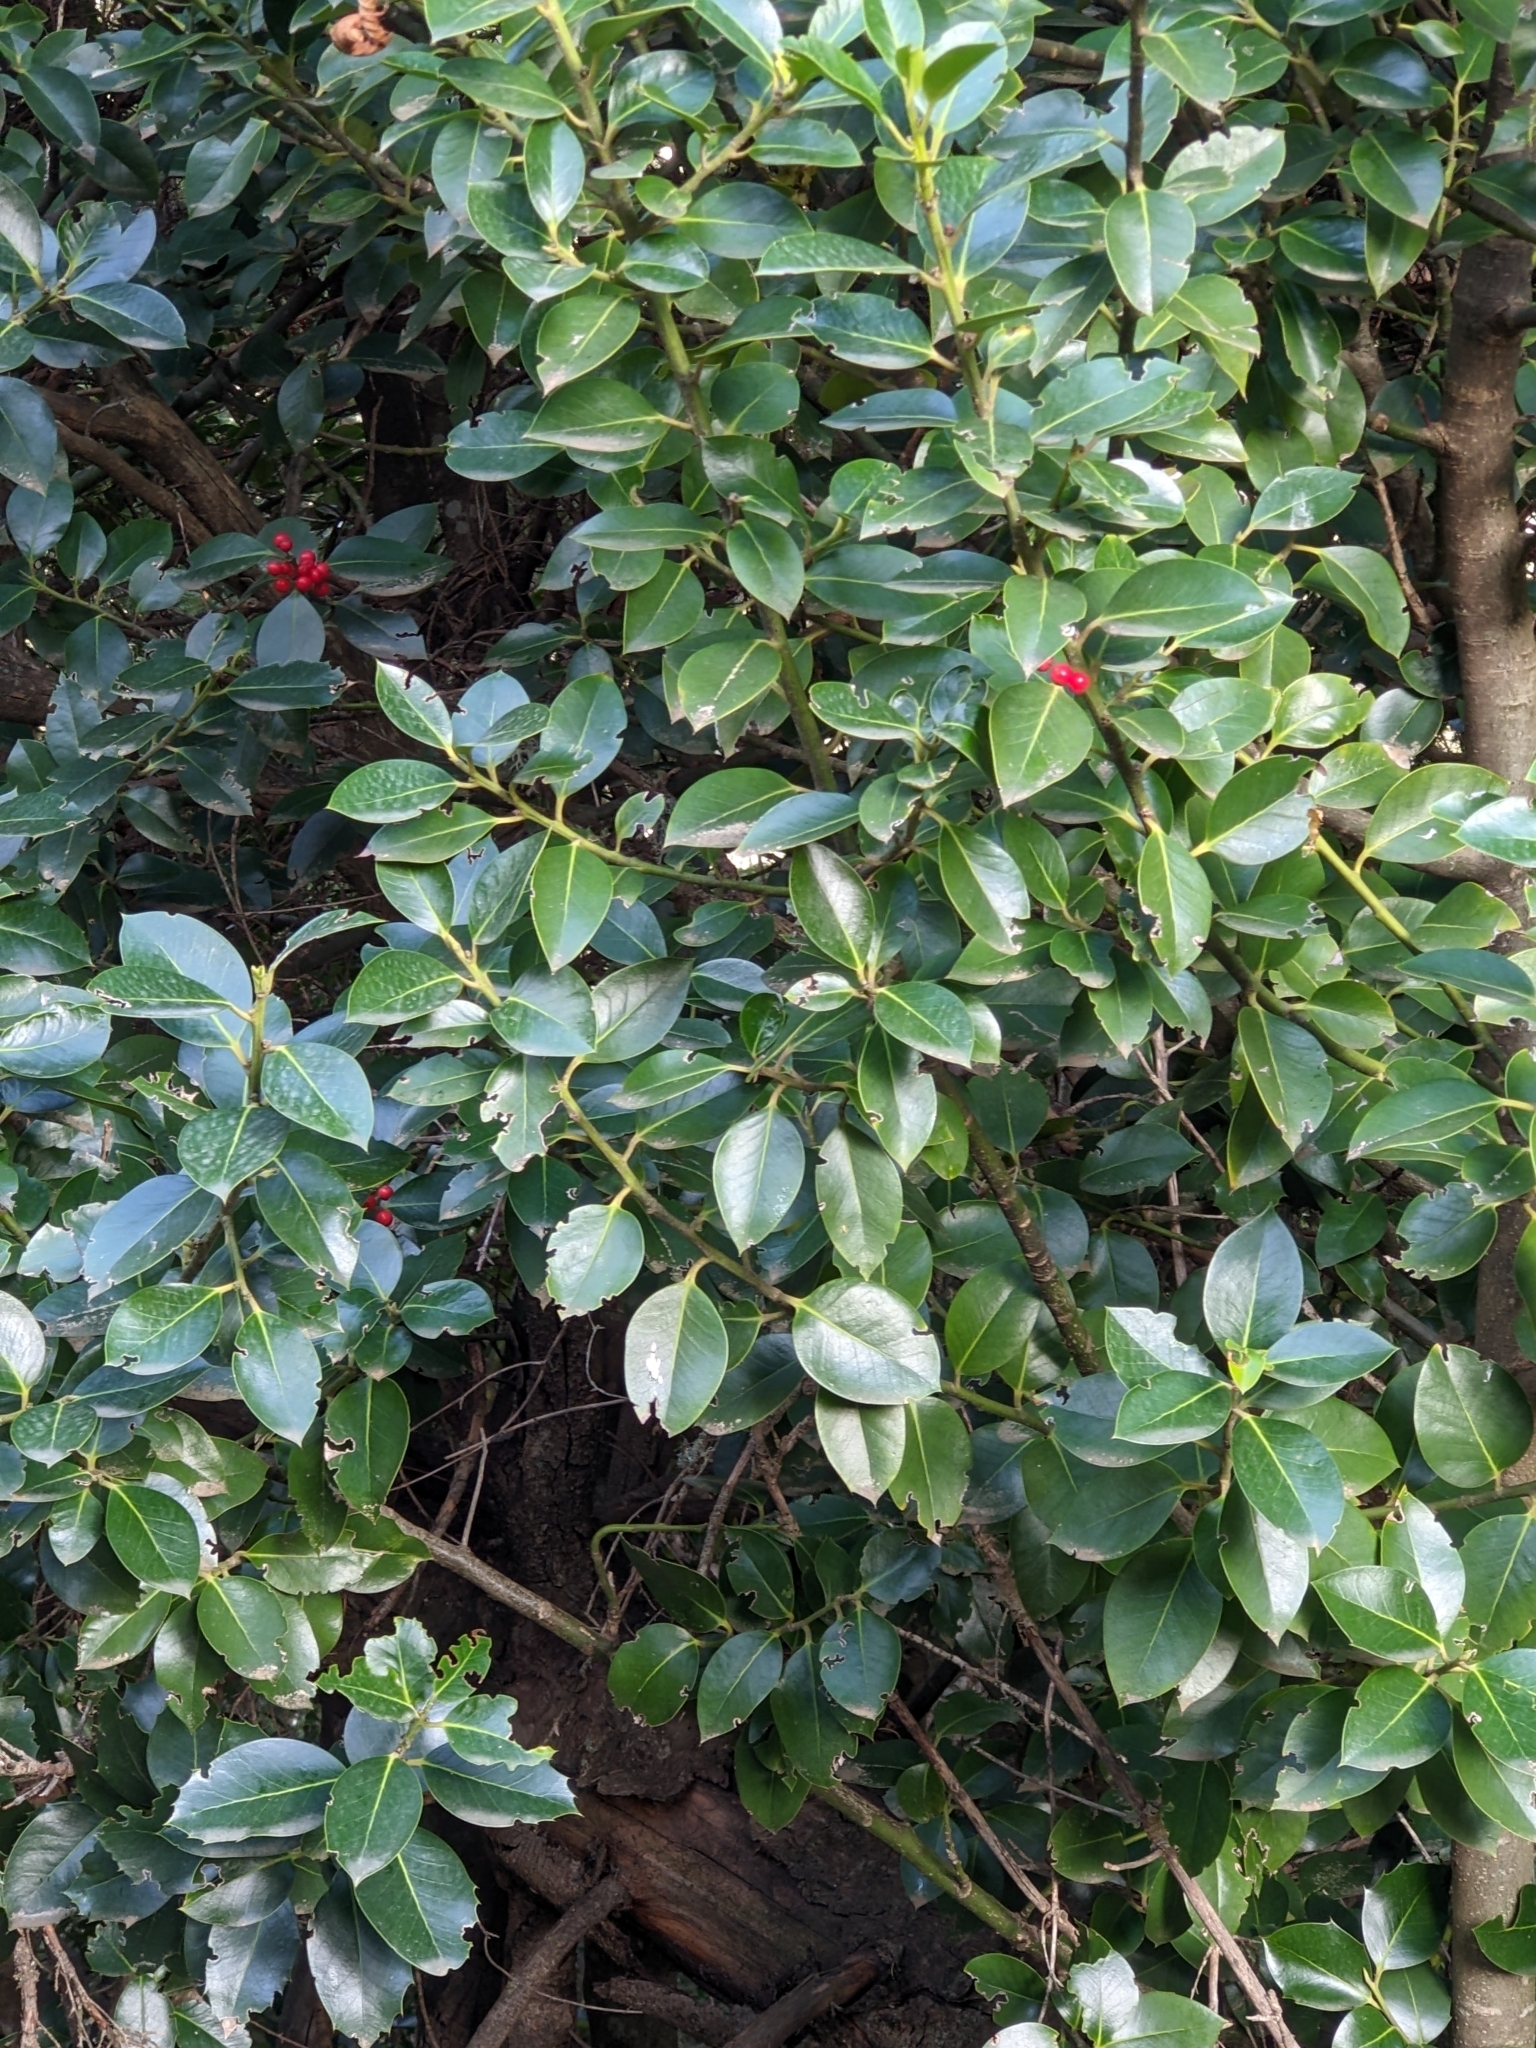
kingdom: Plantae
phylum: Tracheophyta
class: Magnoliopsida
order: Aquifoliales
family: Aquifoliaceae
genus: Ilex
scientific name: Ilex aquifolium
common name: English holly
